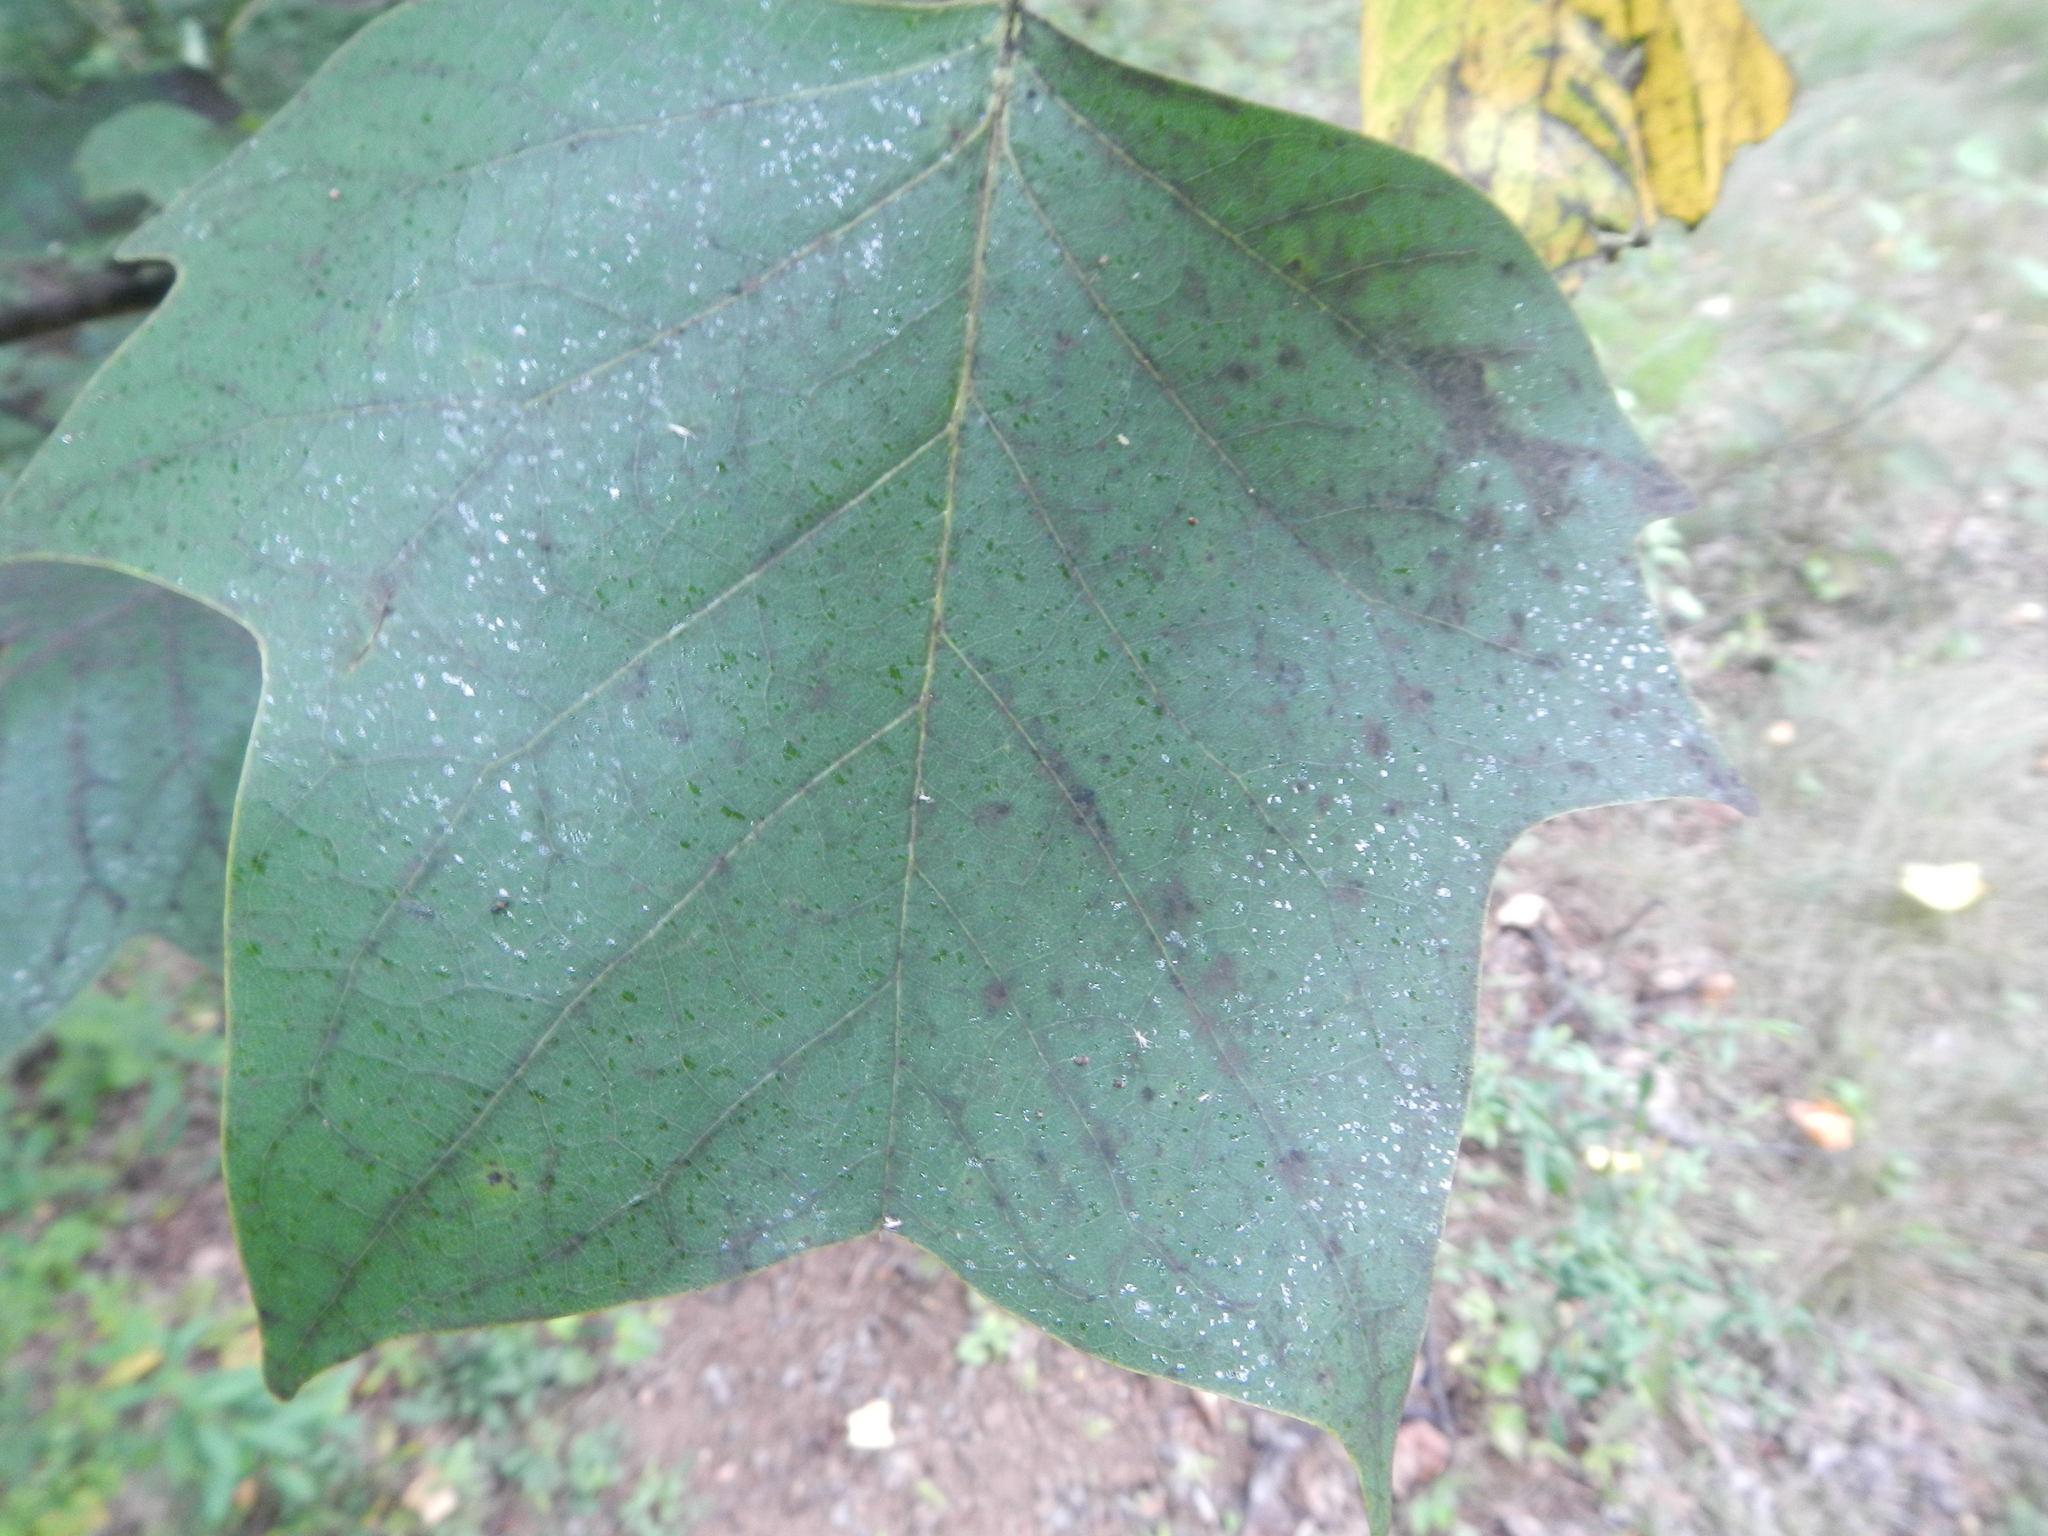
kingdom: Plantae
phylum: Tracheophyta
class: Magnoliopsida
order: Magnoliales
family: Magnoliaceae
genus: Liriodendron
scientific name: Liriodendron tulipifera
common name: Tulip tree
